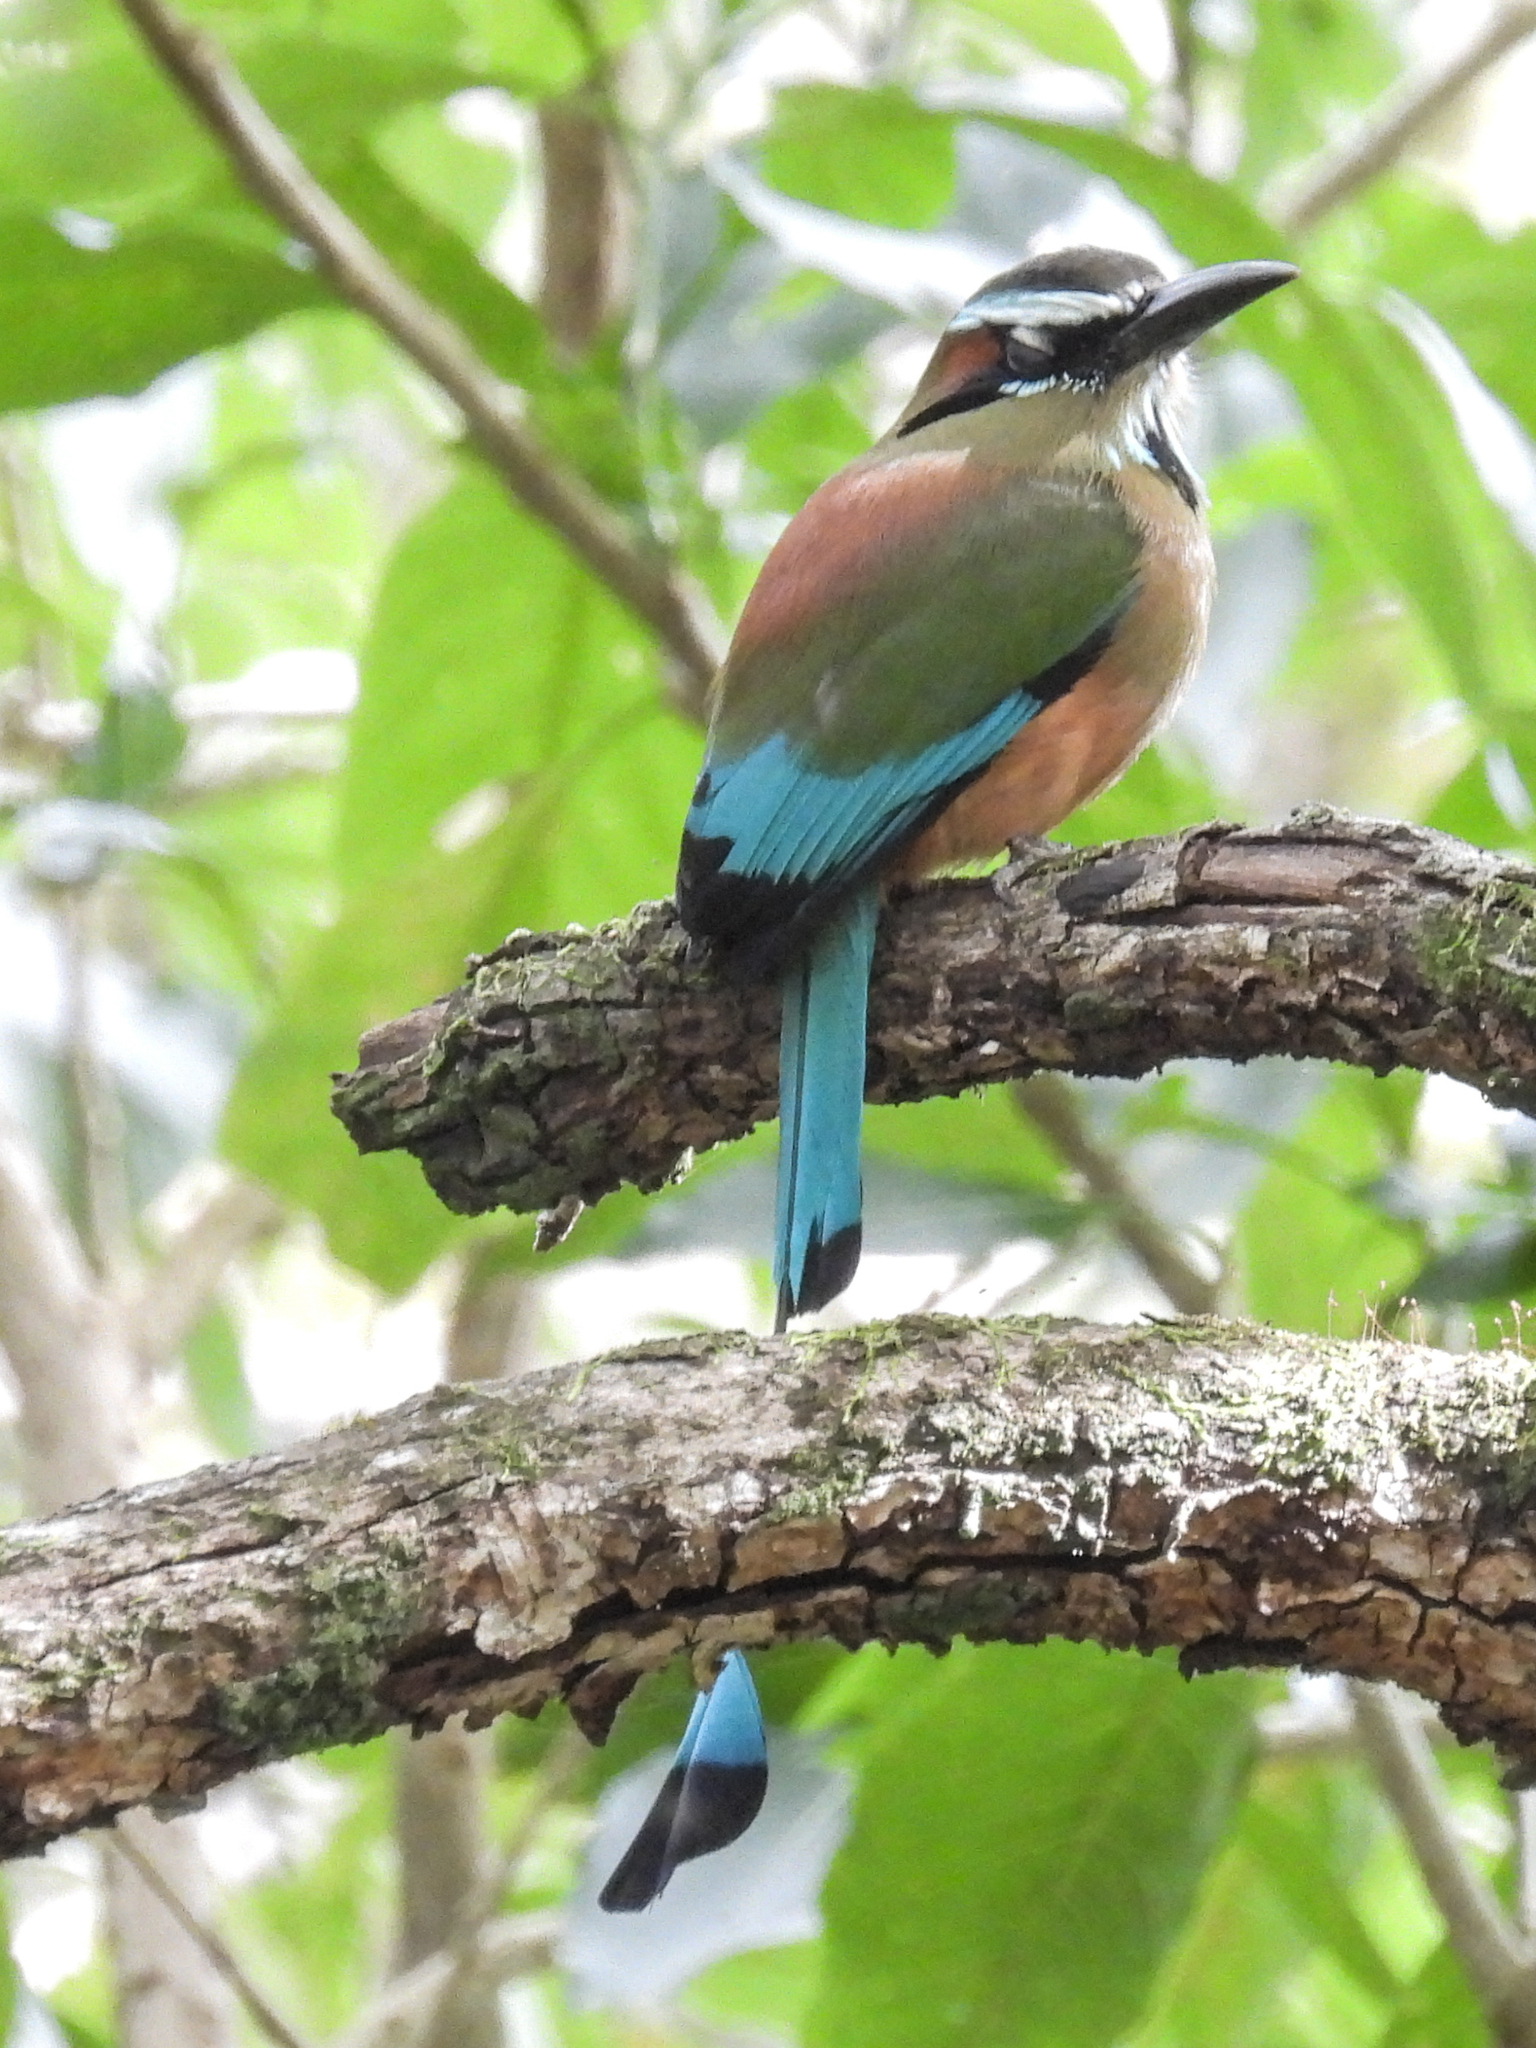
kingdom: Animalia
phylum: Chordata
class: Aves
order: Coraciiformes
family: Momotidae
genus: Eumomota
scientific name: Eumomota superciliosa
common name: Turquoise-browed motmot
